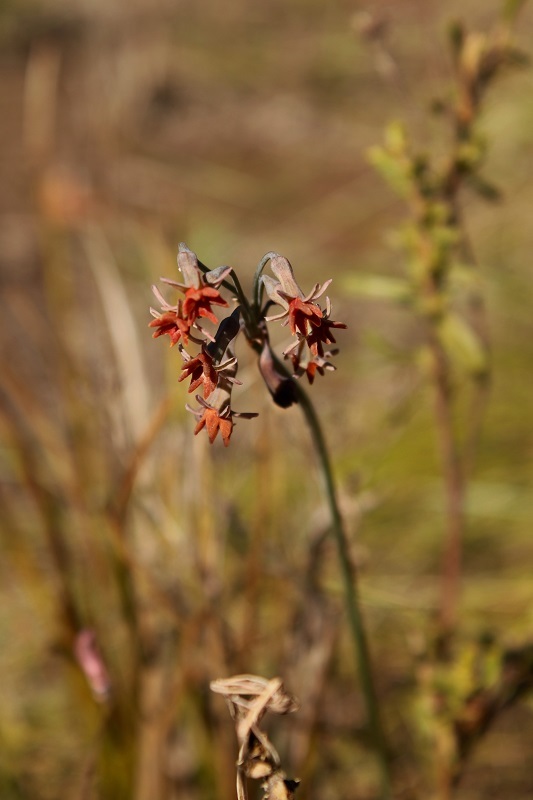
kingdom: Plantae
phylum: Tracheophyta
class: Liliopsida
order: Asparagales
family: Amaryllidaceae
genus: Tulbaghia
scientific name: Tulbaghia capensis
